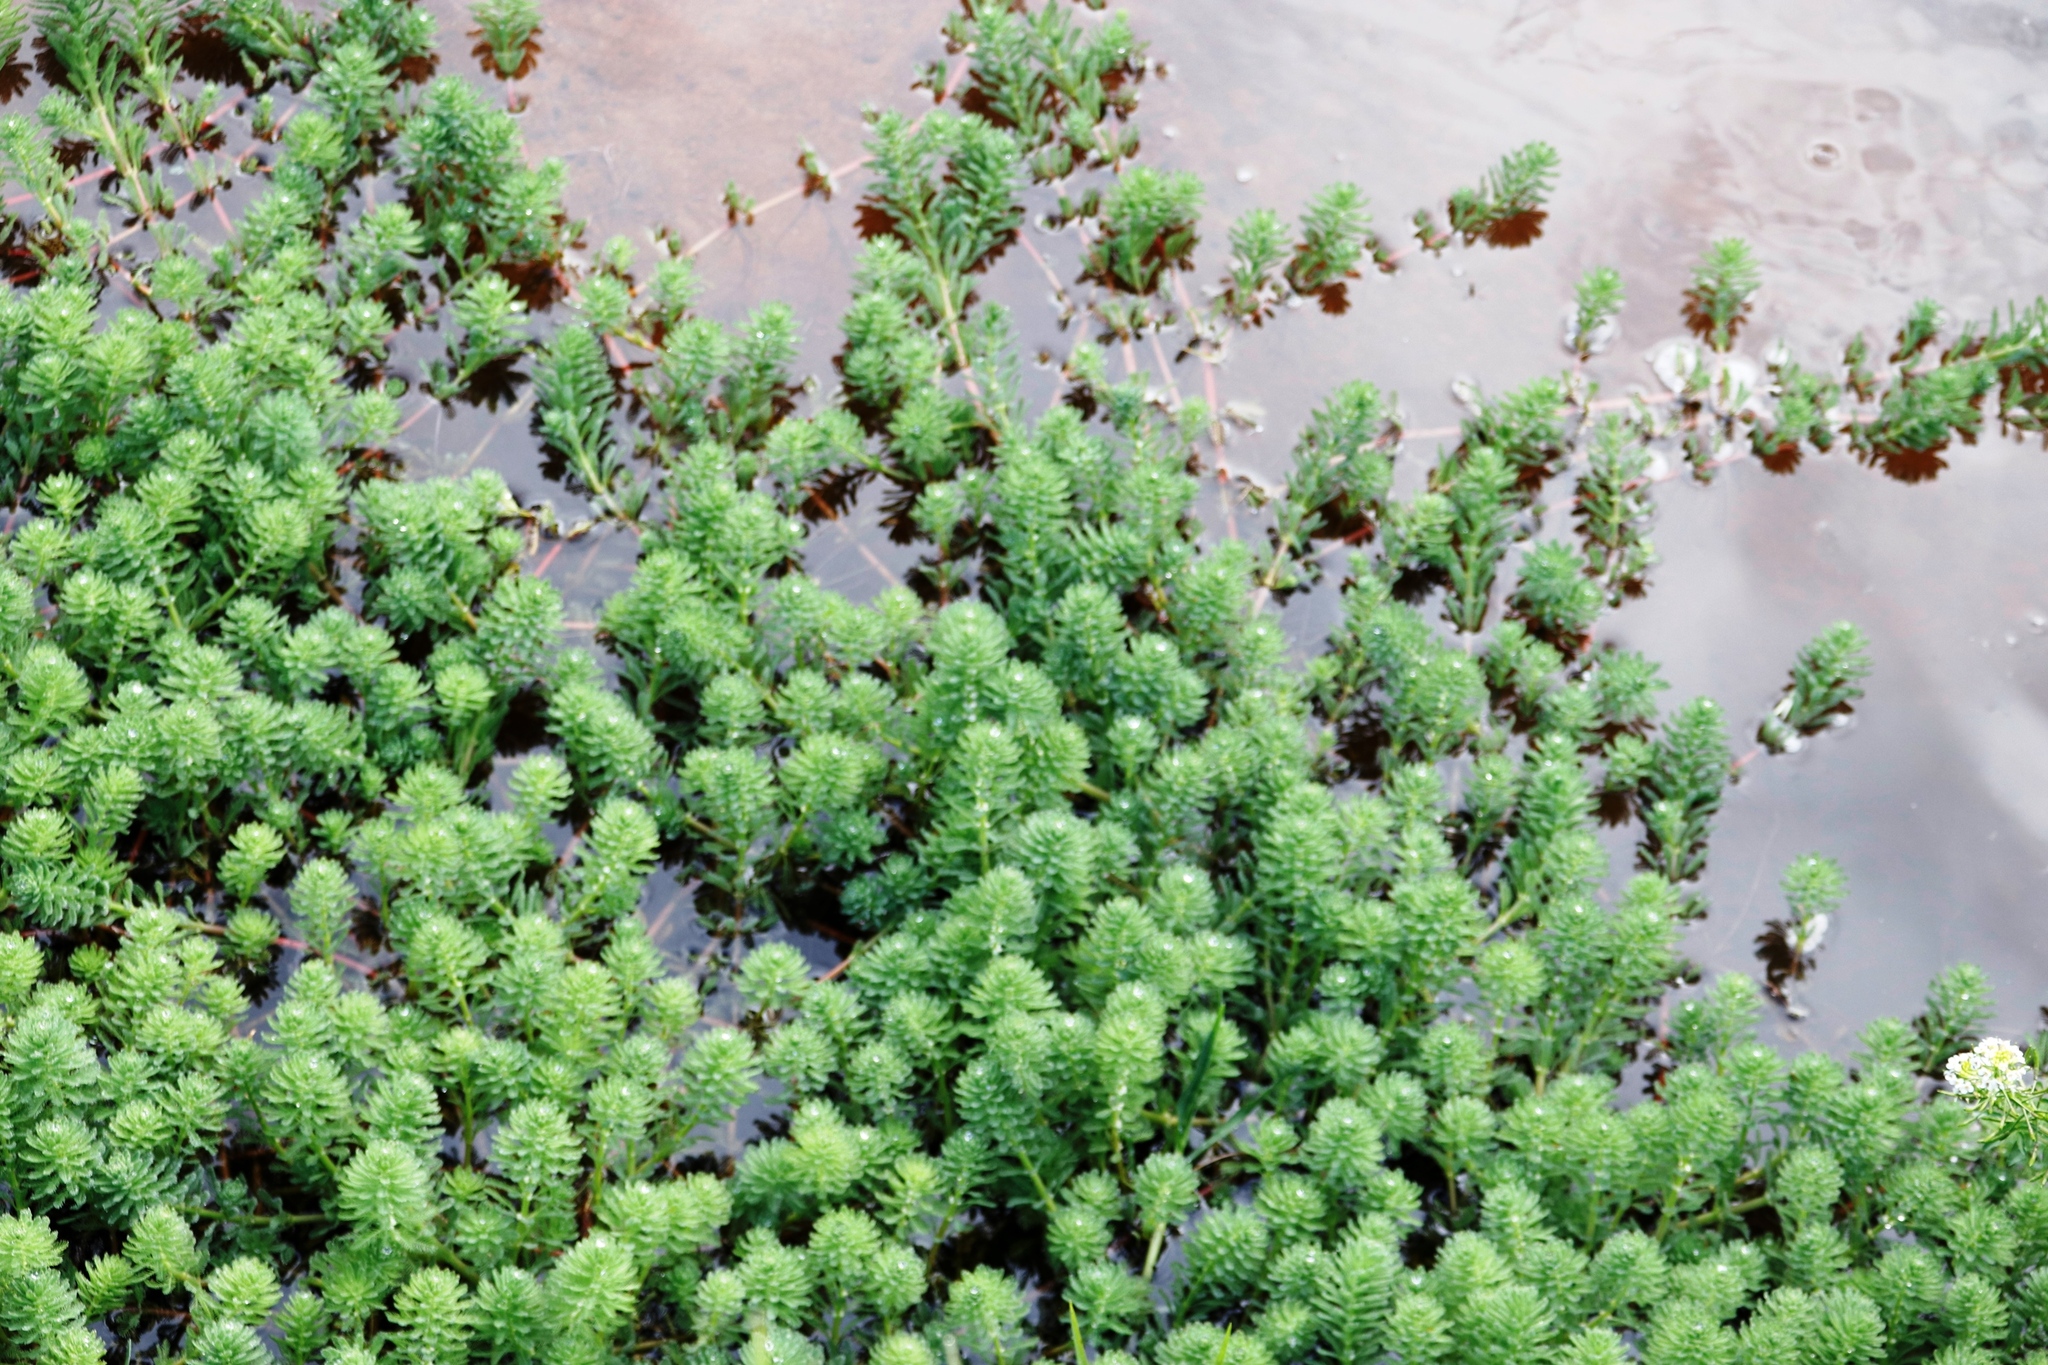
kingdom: Plantae
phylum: Tracheophyta
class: Magnoliopsida
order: Saxifragales
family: Haloragaceae
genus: Myriophyllum
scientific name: Myriophyllum aquaticum
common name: Parrot's feather
